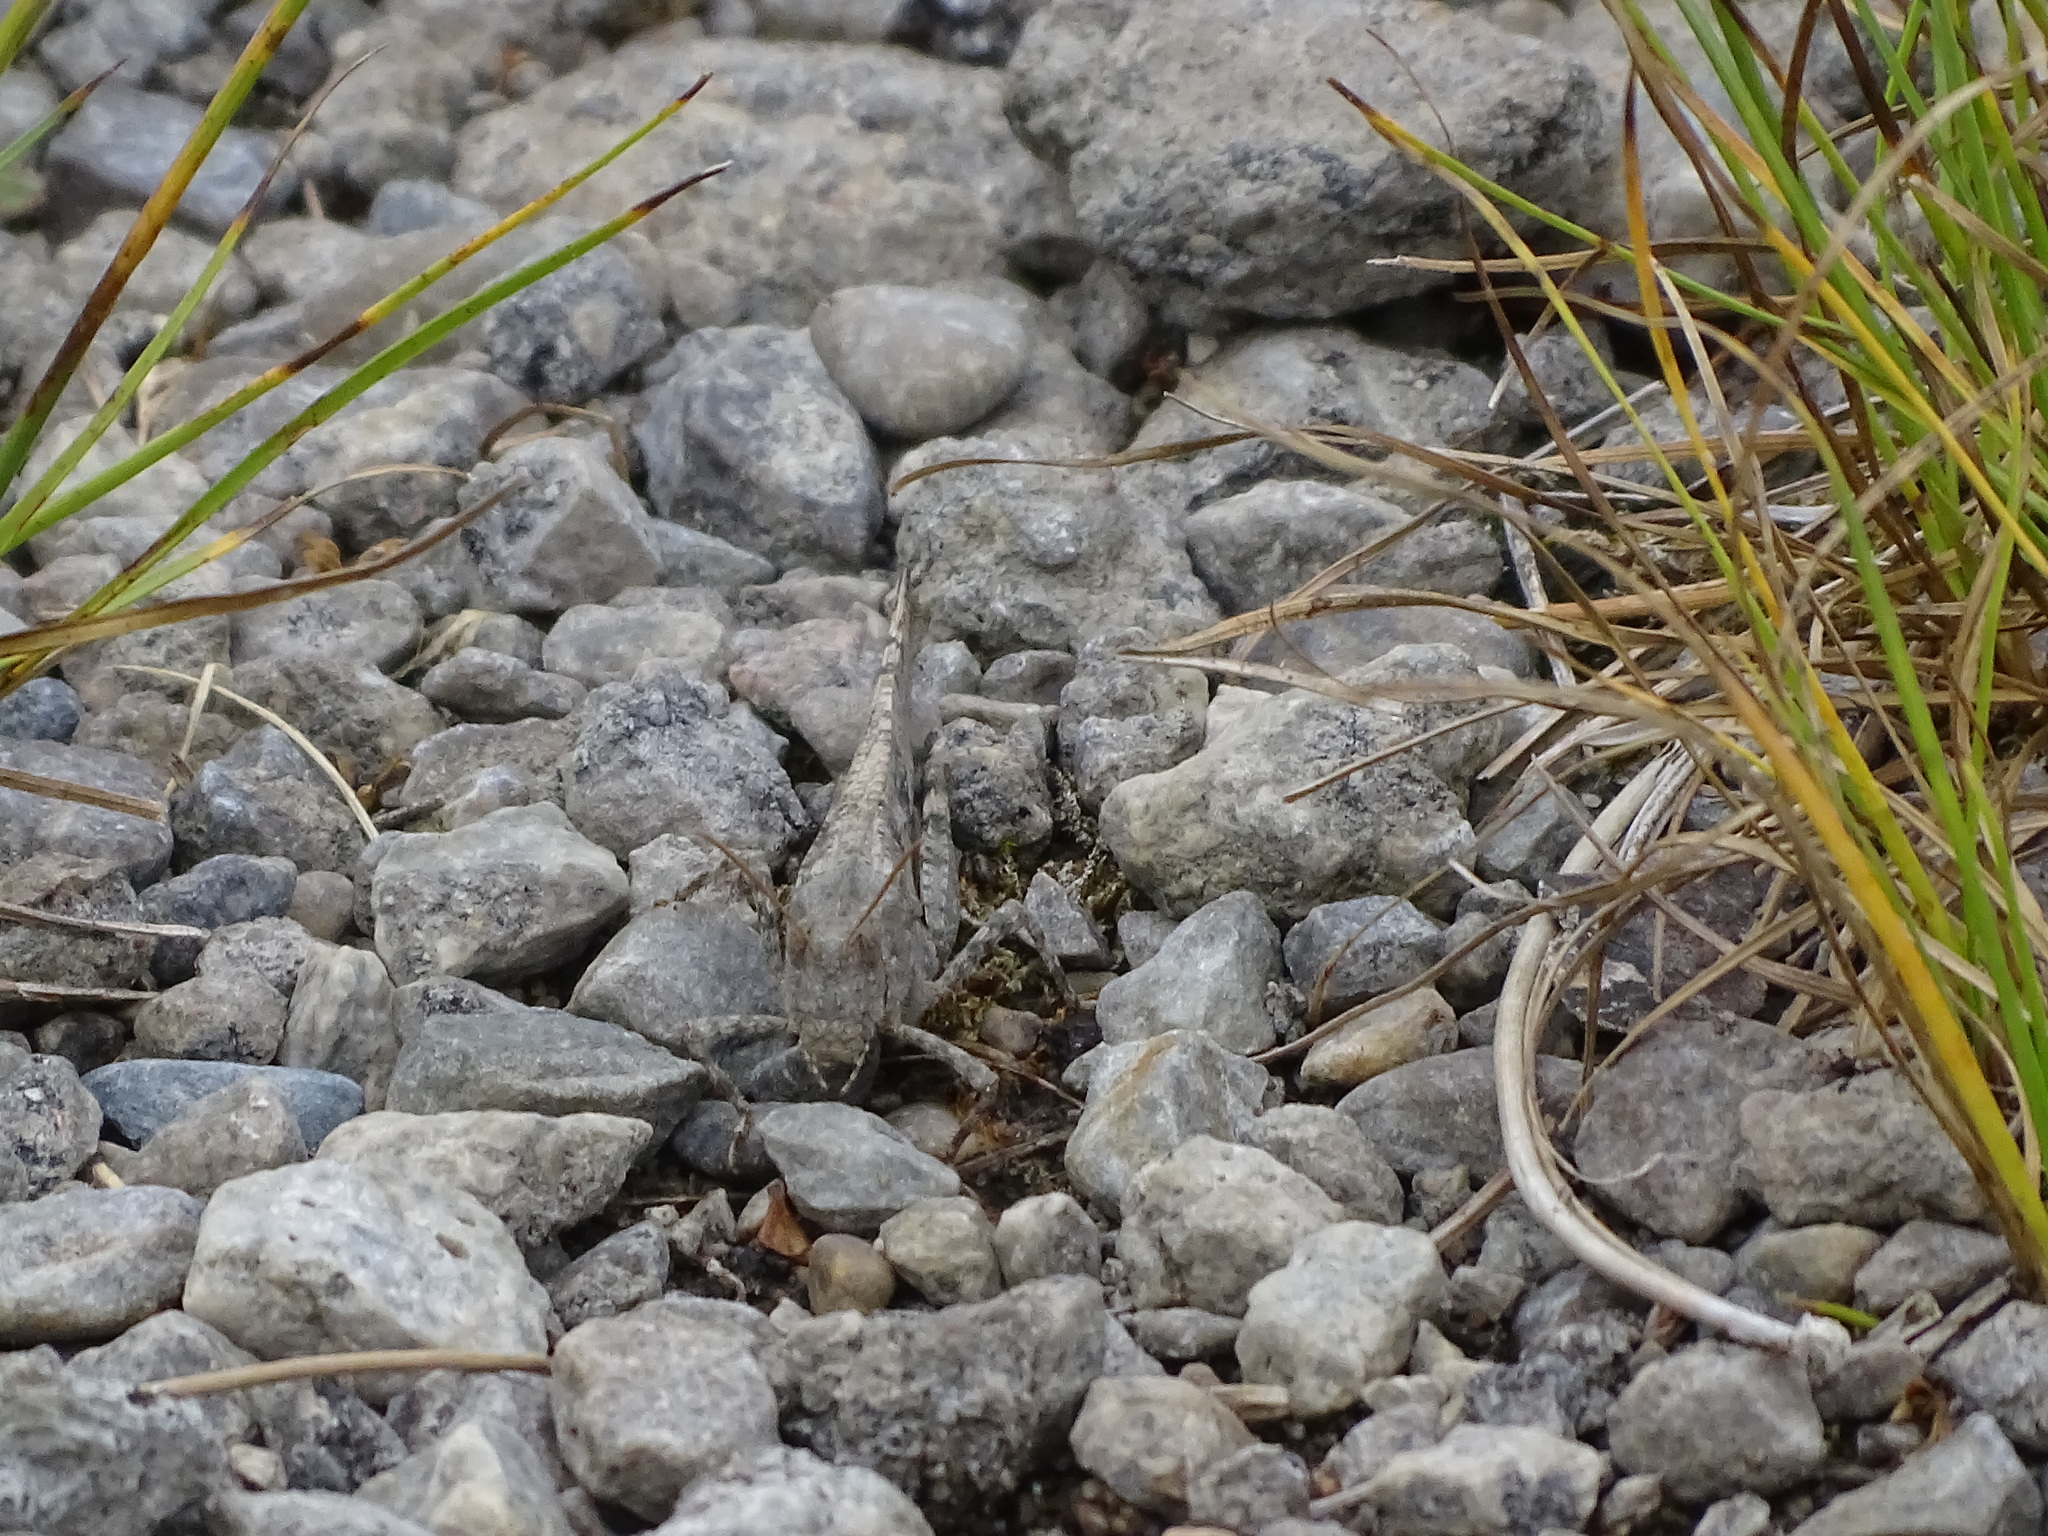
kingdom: Animalia
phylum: Arthropoda
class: Insecta
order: Orthoptera
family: Acrididae
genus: Dissosteira
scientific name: Dissosteira carolina
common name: Carolina grasshopper
